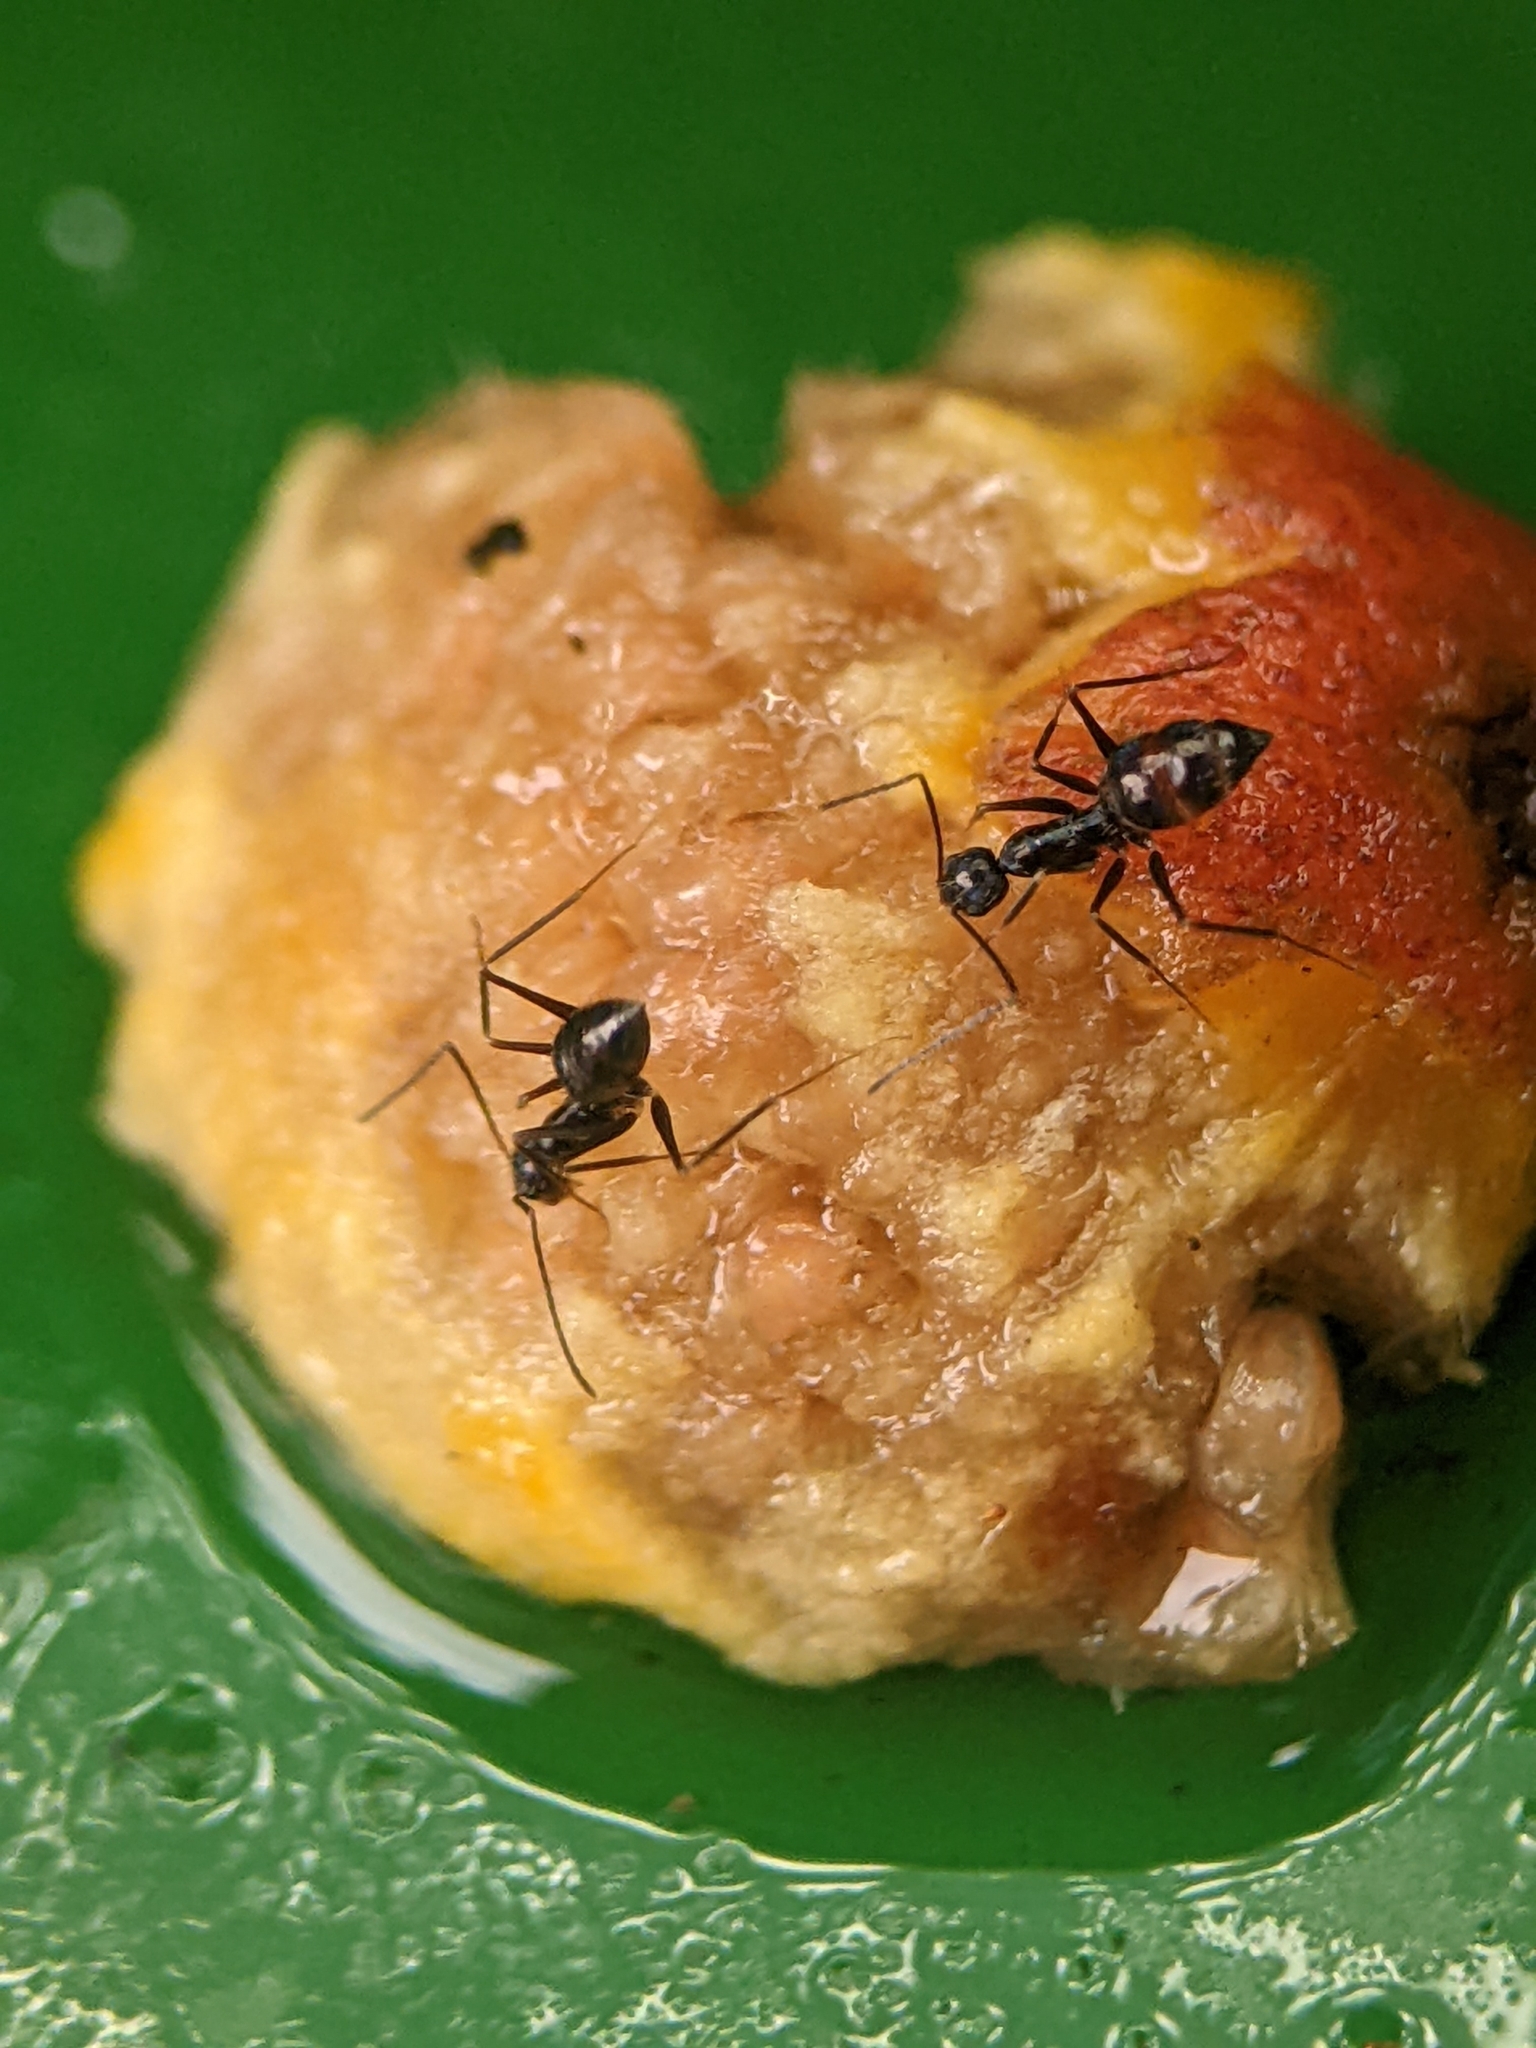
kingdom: Animalia
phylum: Arthropoda
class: Insecta
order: Hymenoptera
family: Formicidae
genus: Paratrechina
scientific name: Paratrechina longicornis
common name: Longhorned crazy ant
